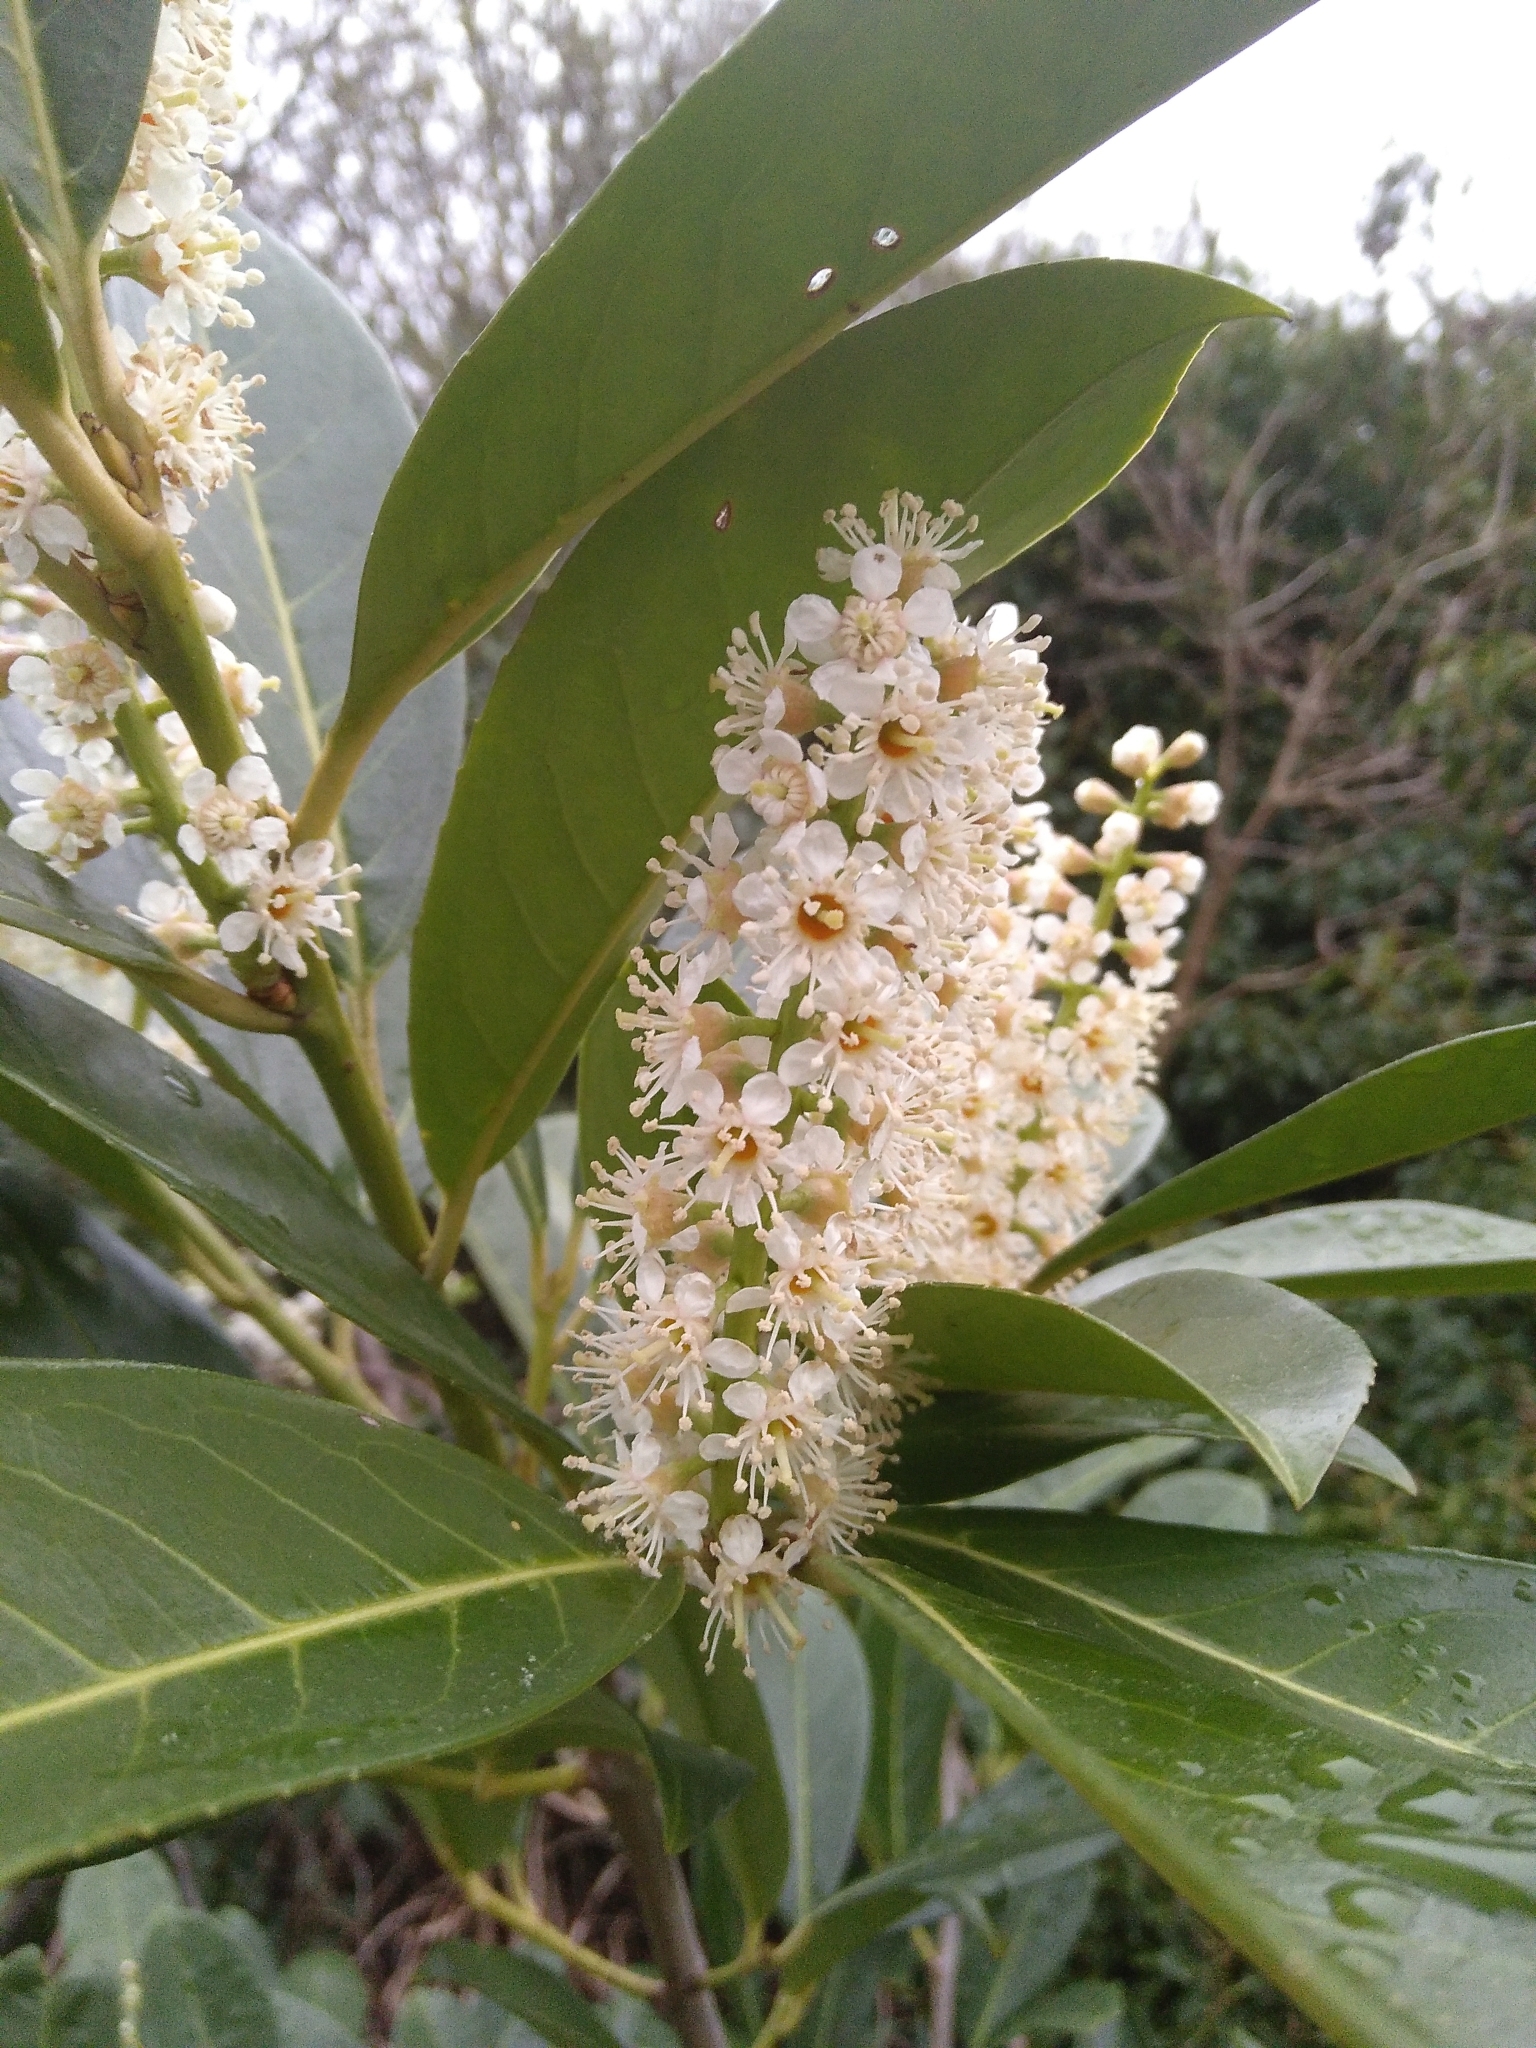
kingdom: Plantae
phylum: Tracheophyta
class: Magnoliopsida
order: Rosales
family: Rosaceae
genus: Prunus
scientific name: Prunus laurocerasus
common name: Cherry laurel
